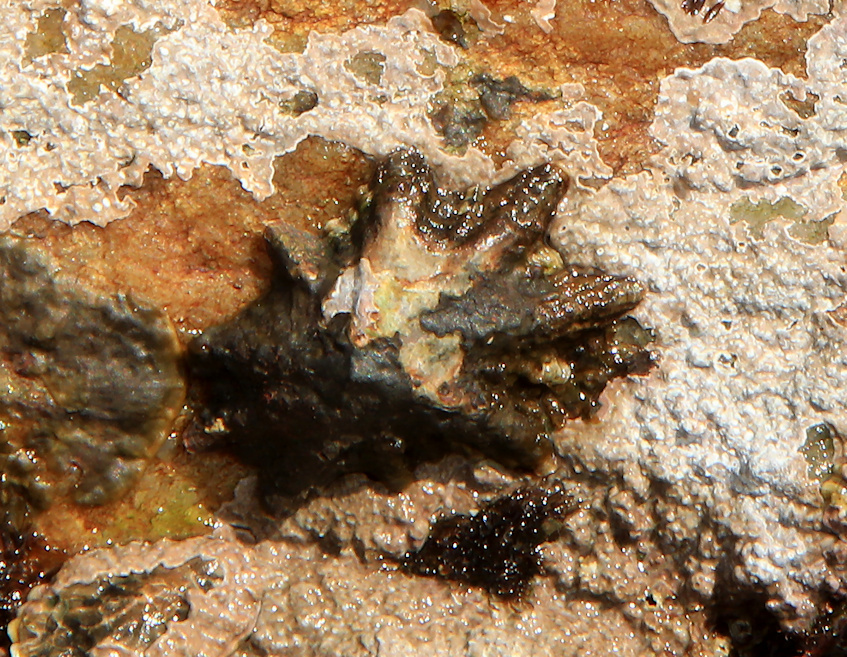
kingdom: Animalia
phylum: Mollusca
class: Gastropoda
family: Patellidae
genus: Scutellastra
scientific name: Scutellastra longicosta
